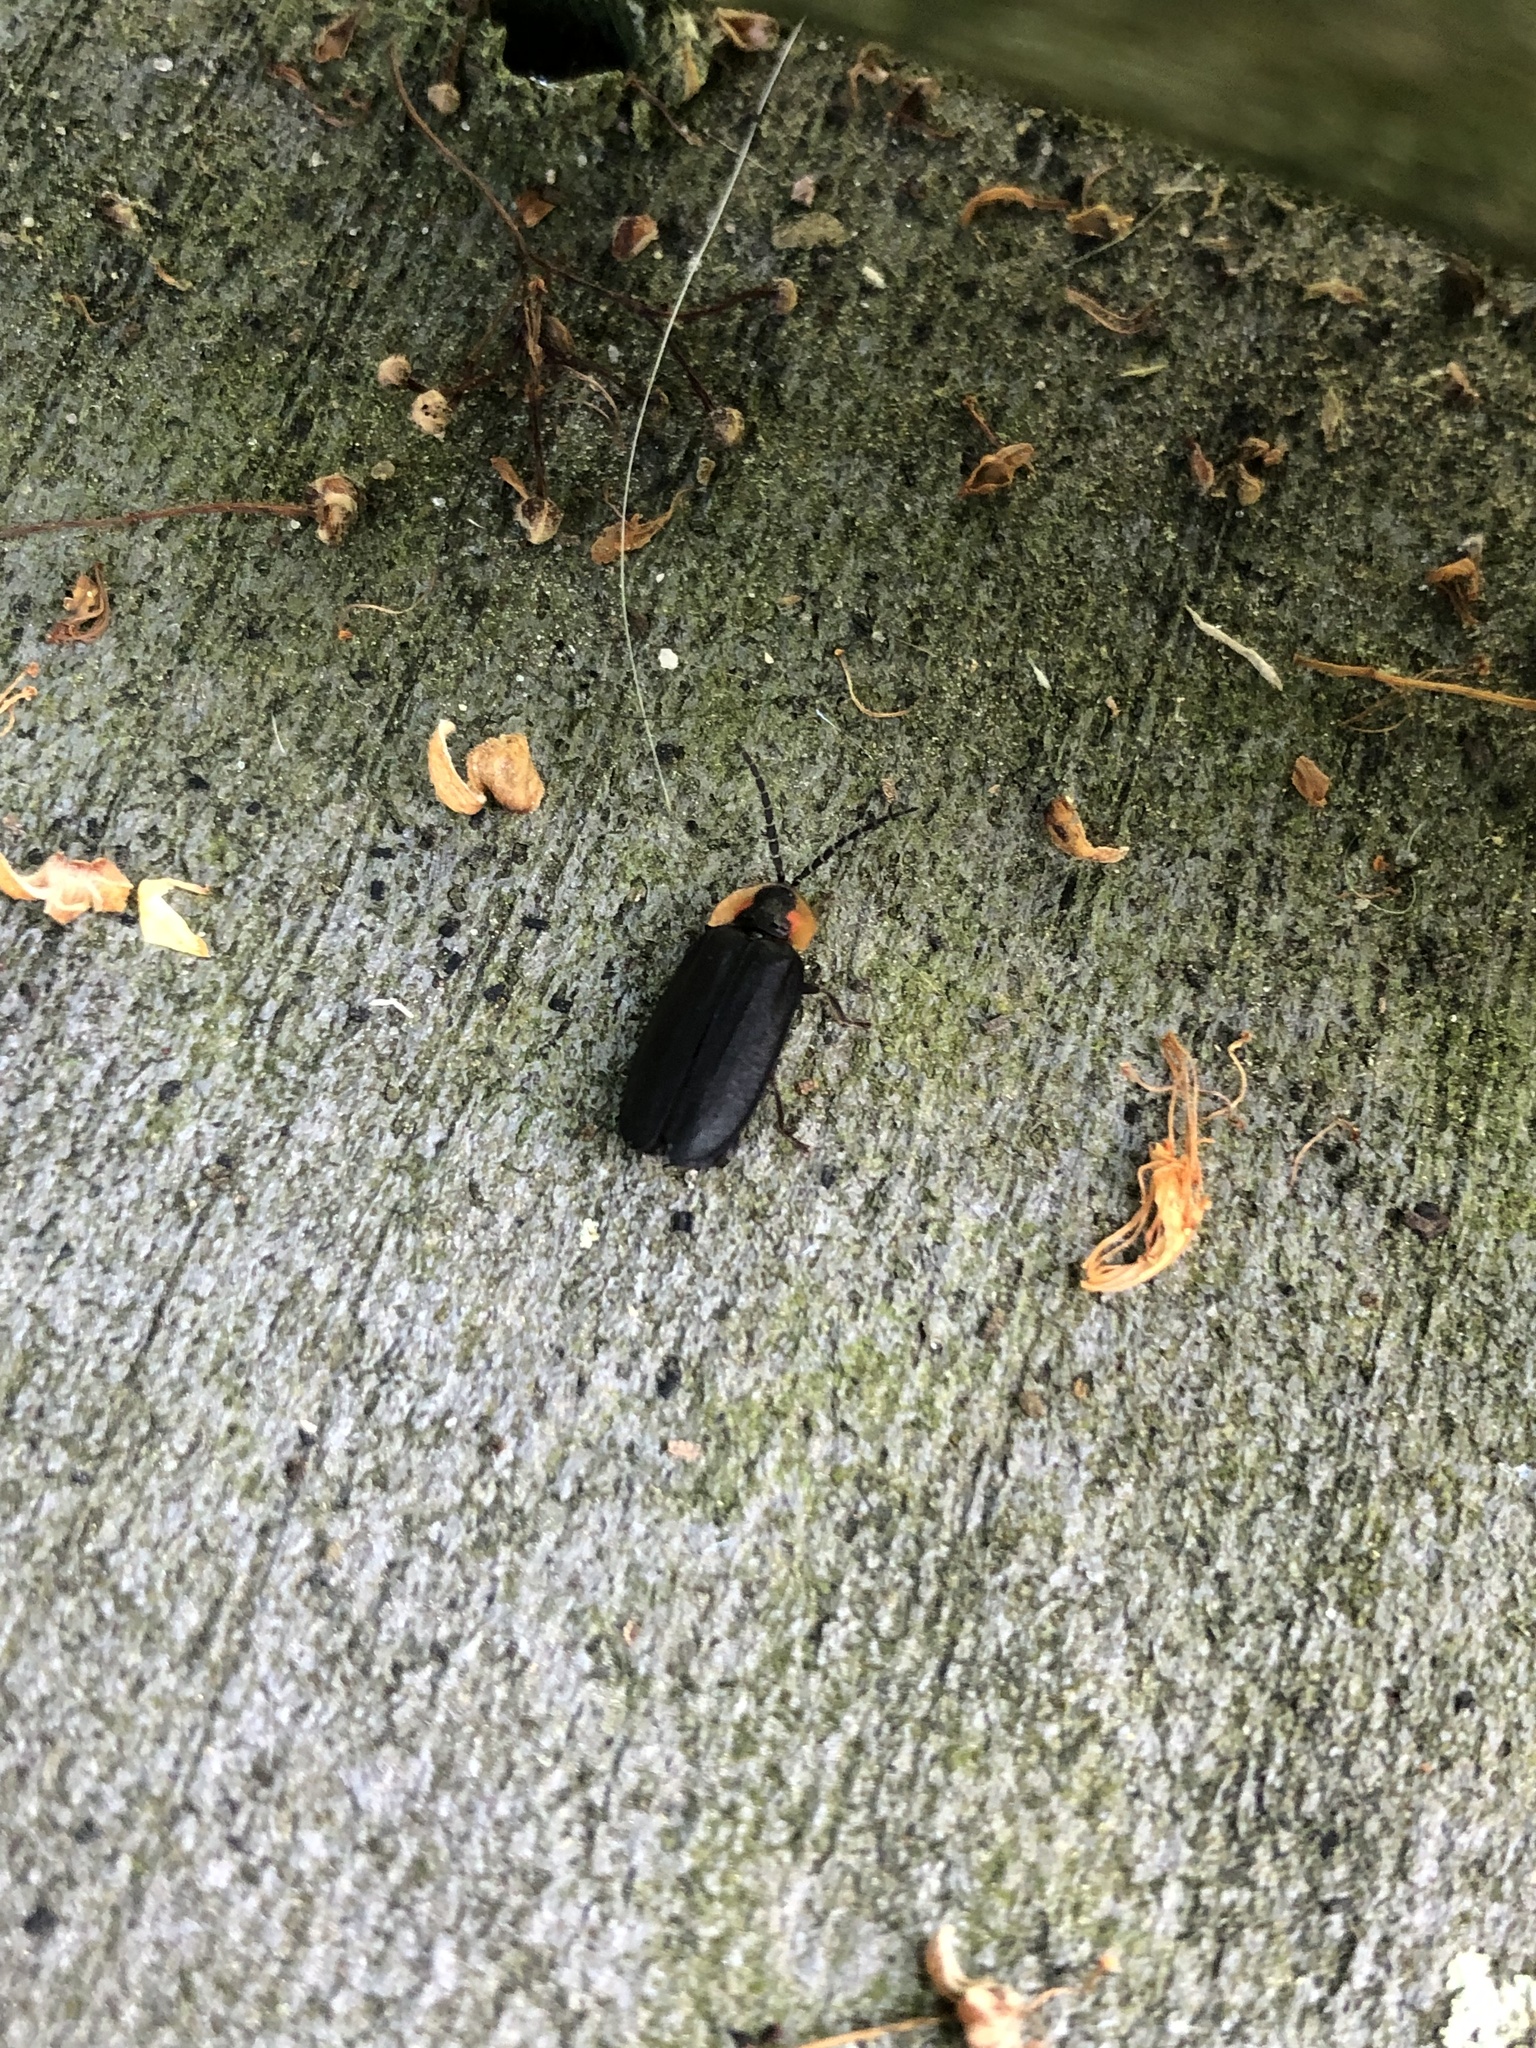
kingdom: Animalia
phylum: Arthropoda
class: Insecta
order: Coleoptera
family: Lampyridae
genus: Lucidota
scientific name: Lucidota atra
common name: Black firefly
